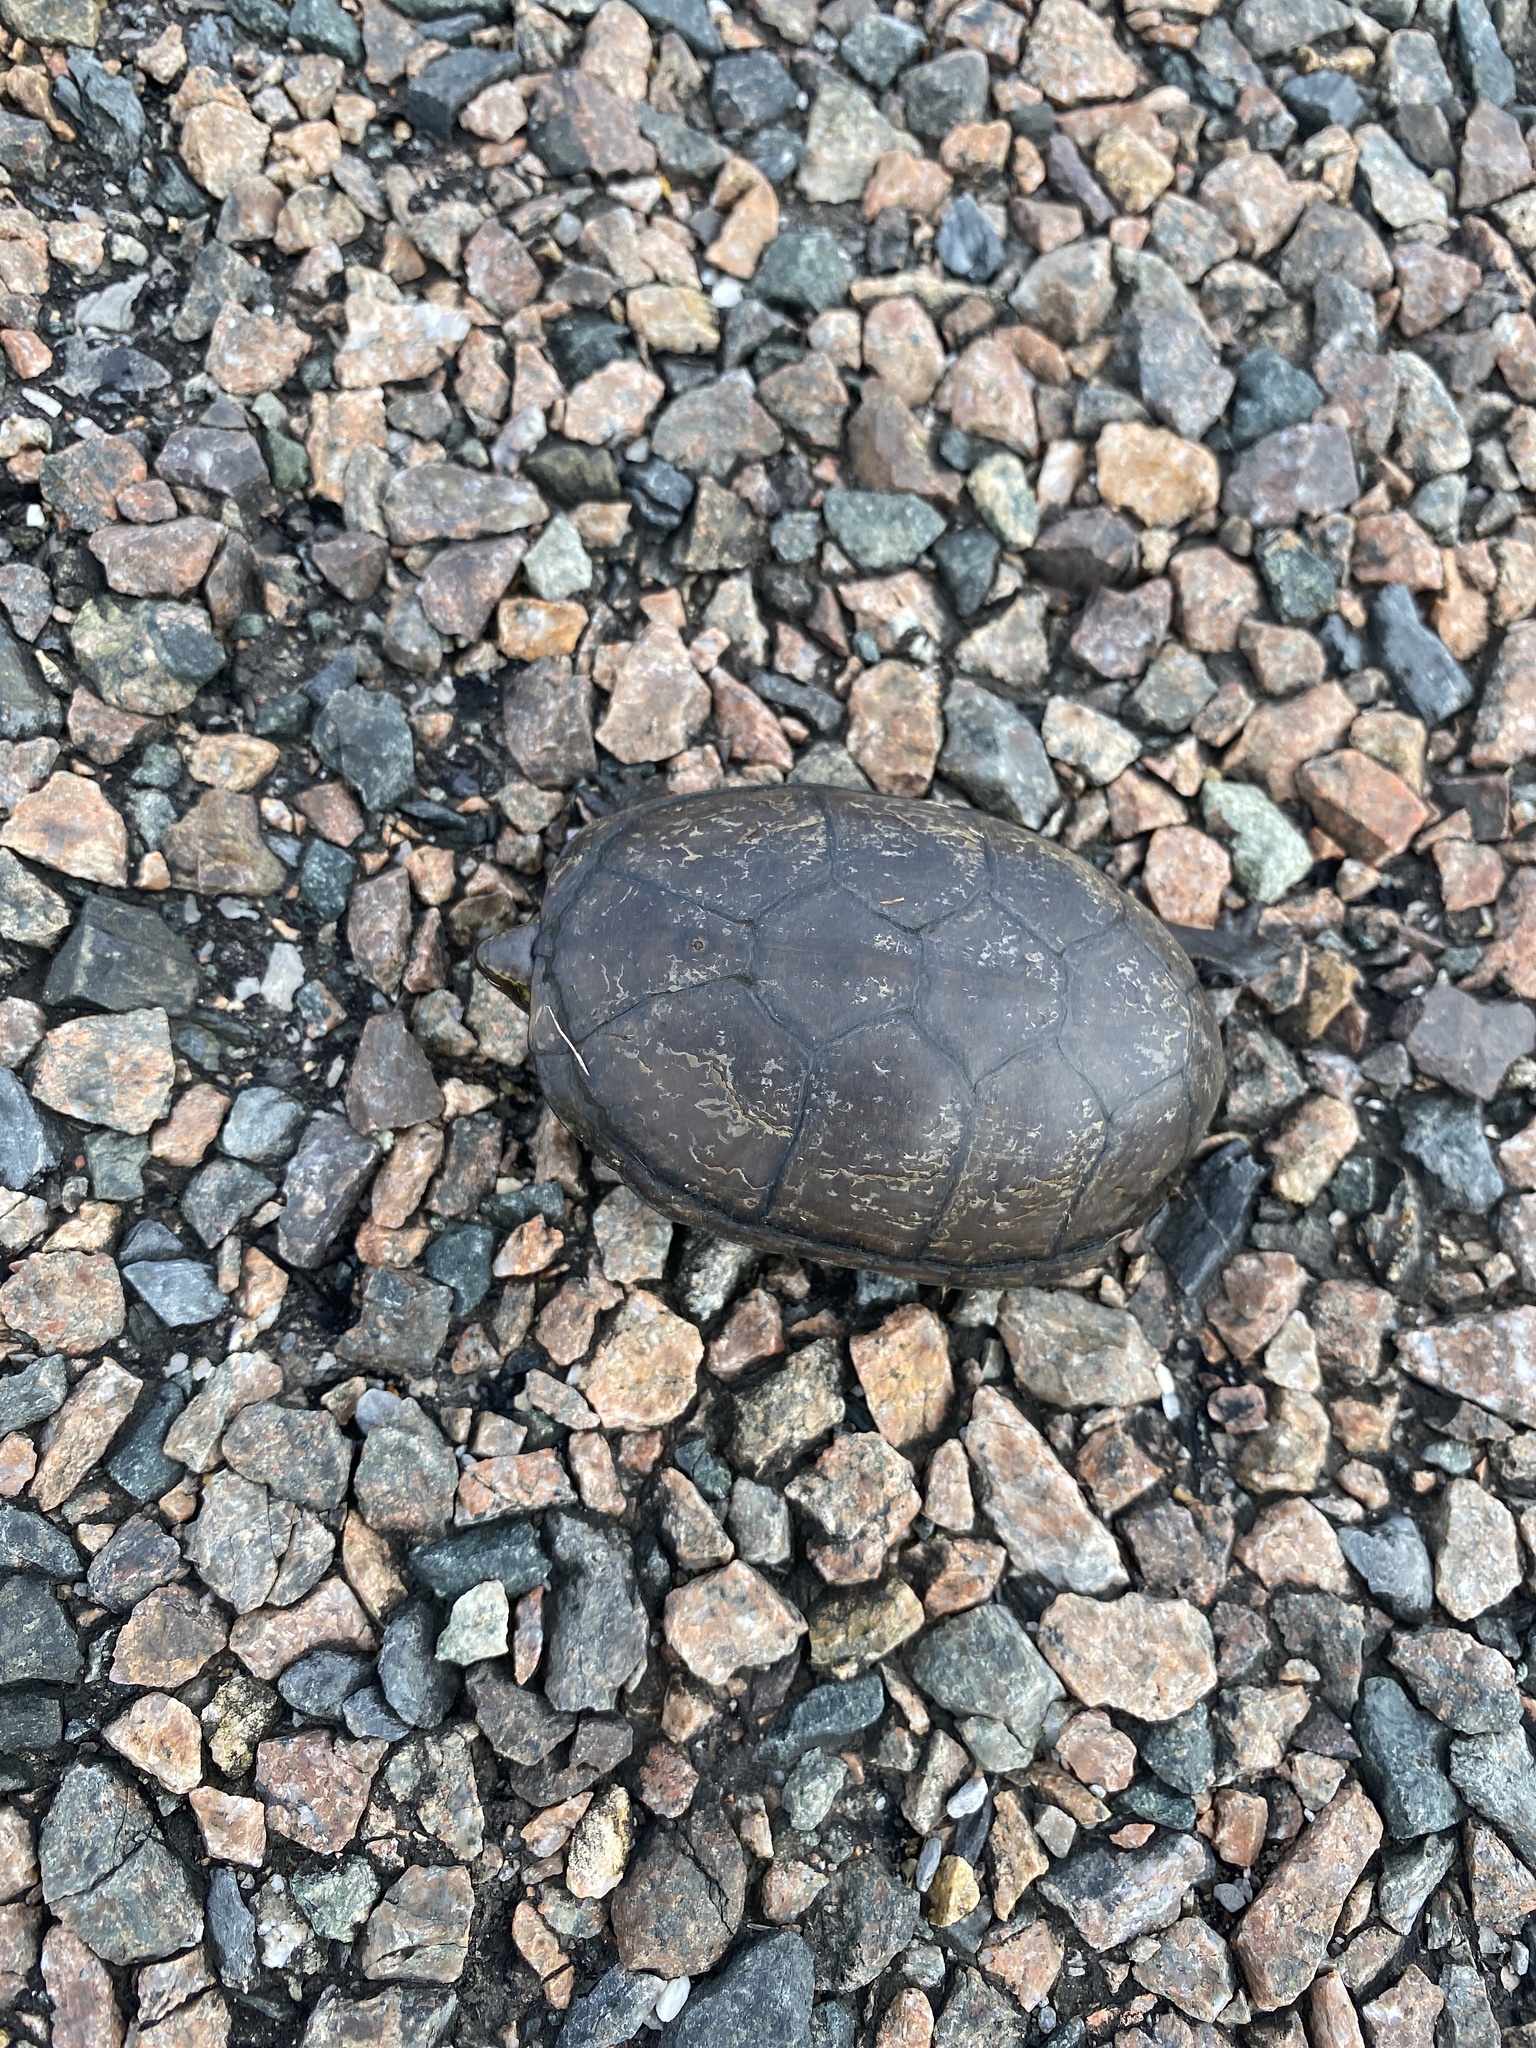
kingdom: Animalia
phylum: Chordata
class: Testudines
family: Kinosternidae
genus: Kinosternon
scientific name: Kinosternon subrubrum
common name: Eastern mud turtle
